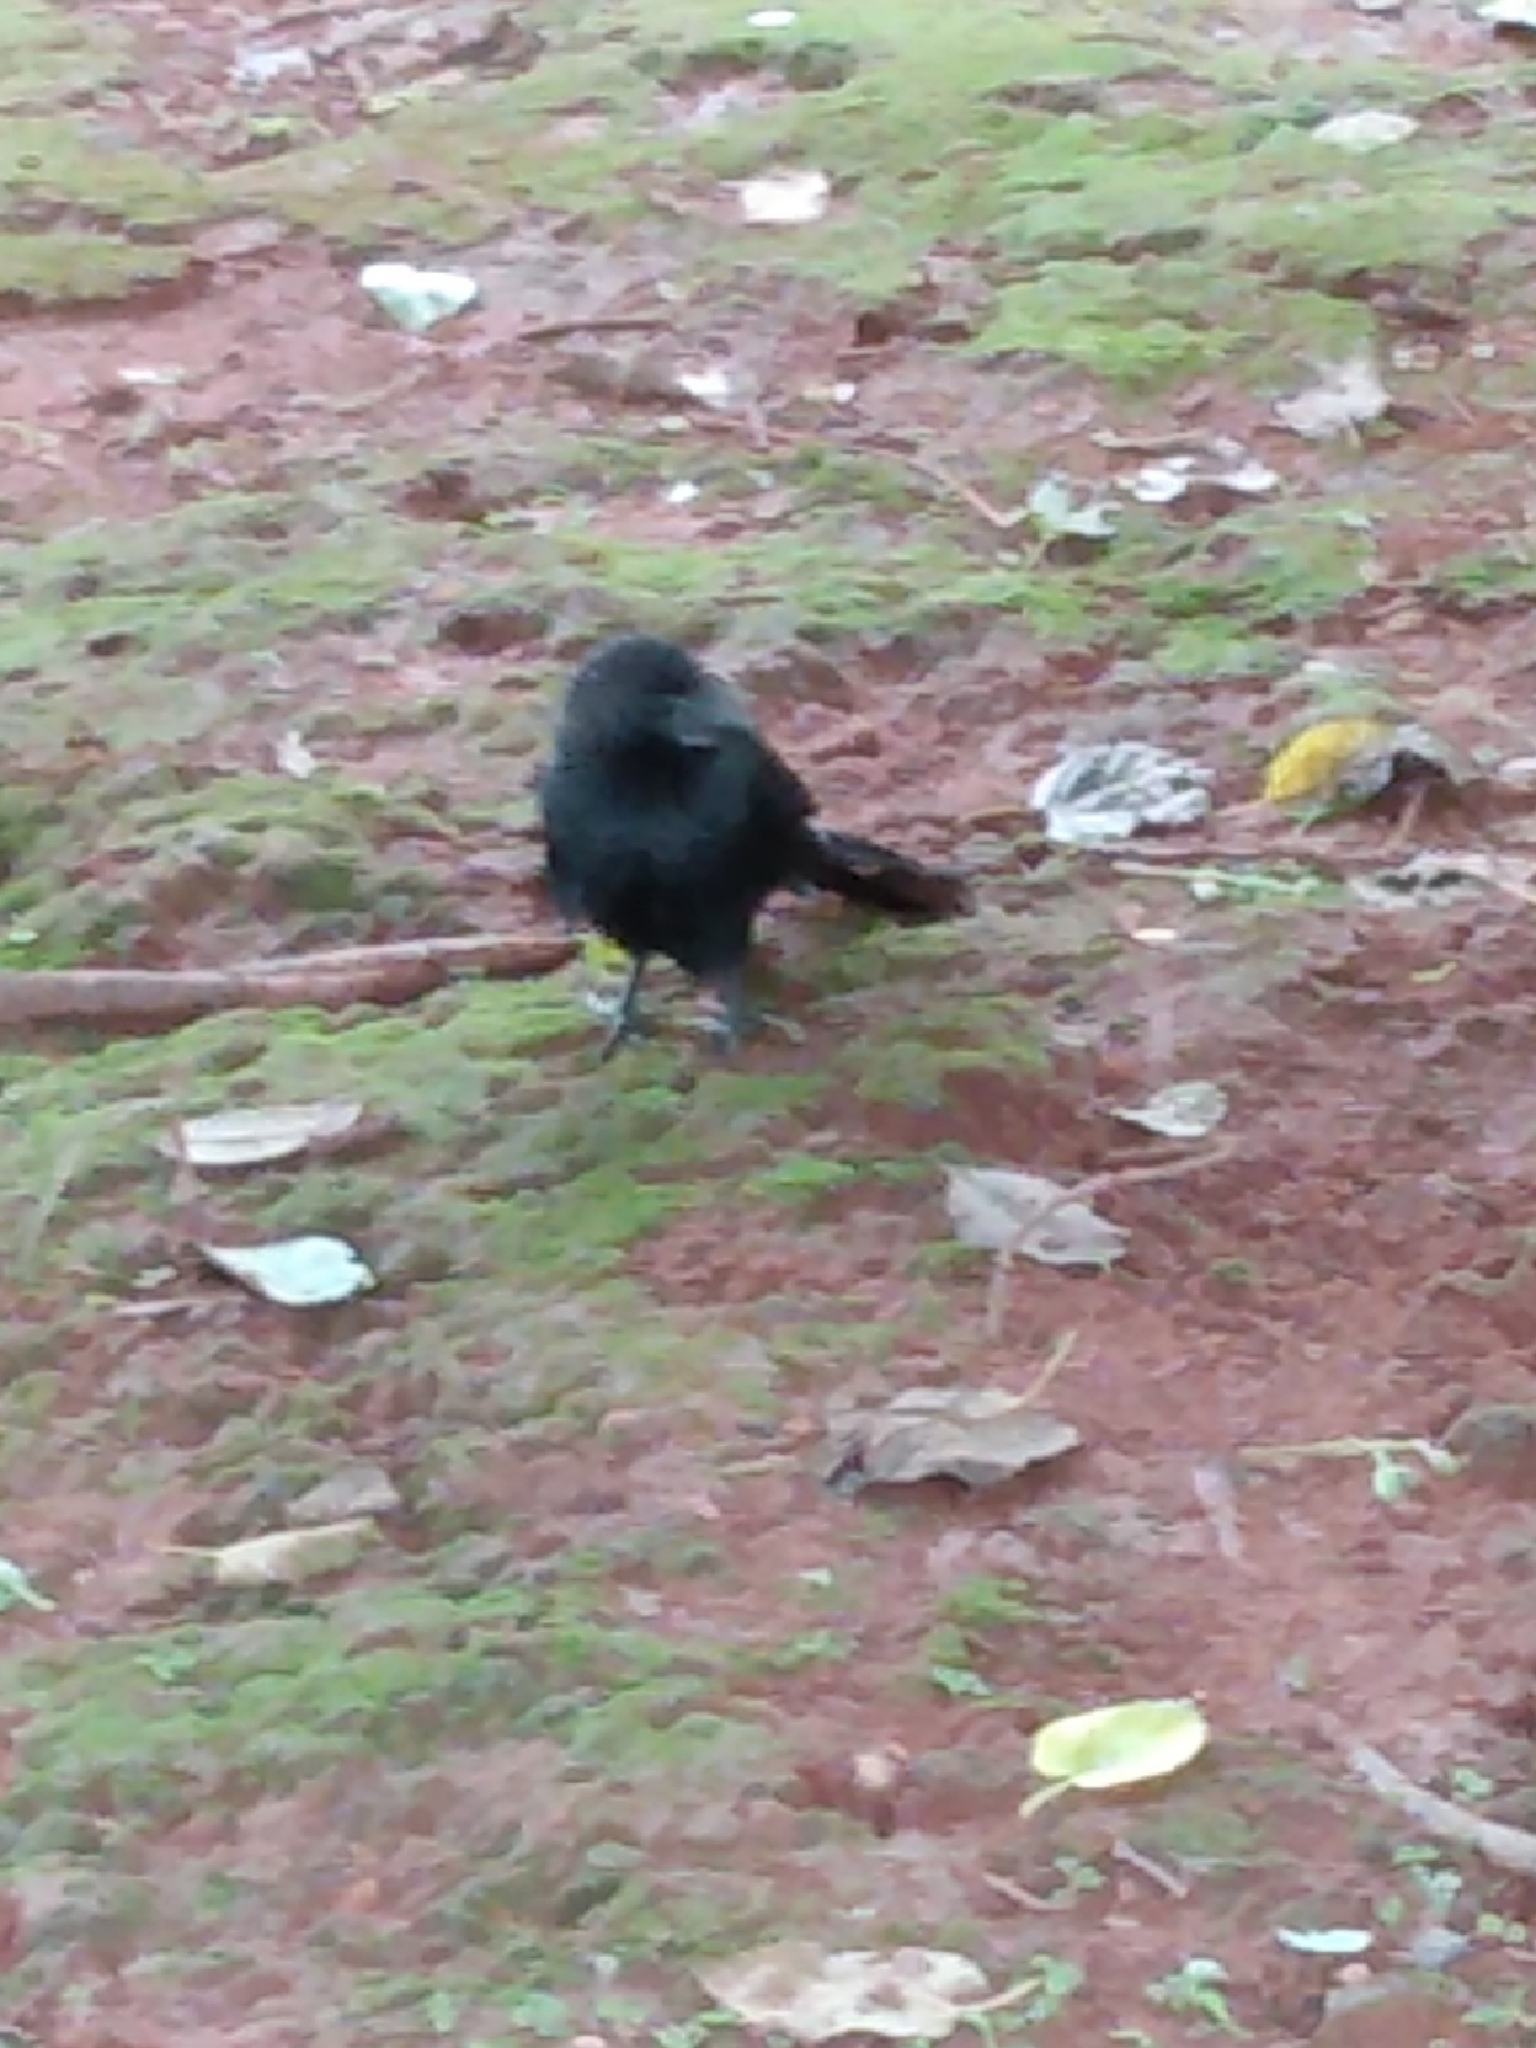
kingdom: Animalia
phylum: Chordata
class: Aves
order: Cuculiformes
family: Cuculidae
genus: Crotophaga
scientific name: Crotophaga ani
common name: Smooth-billed ani
